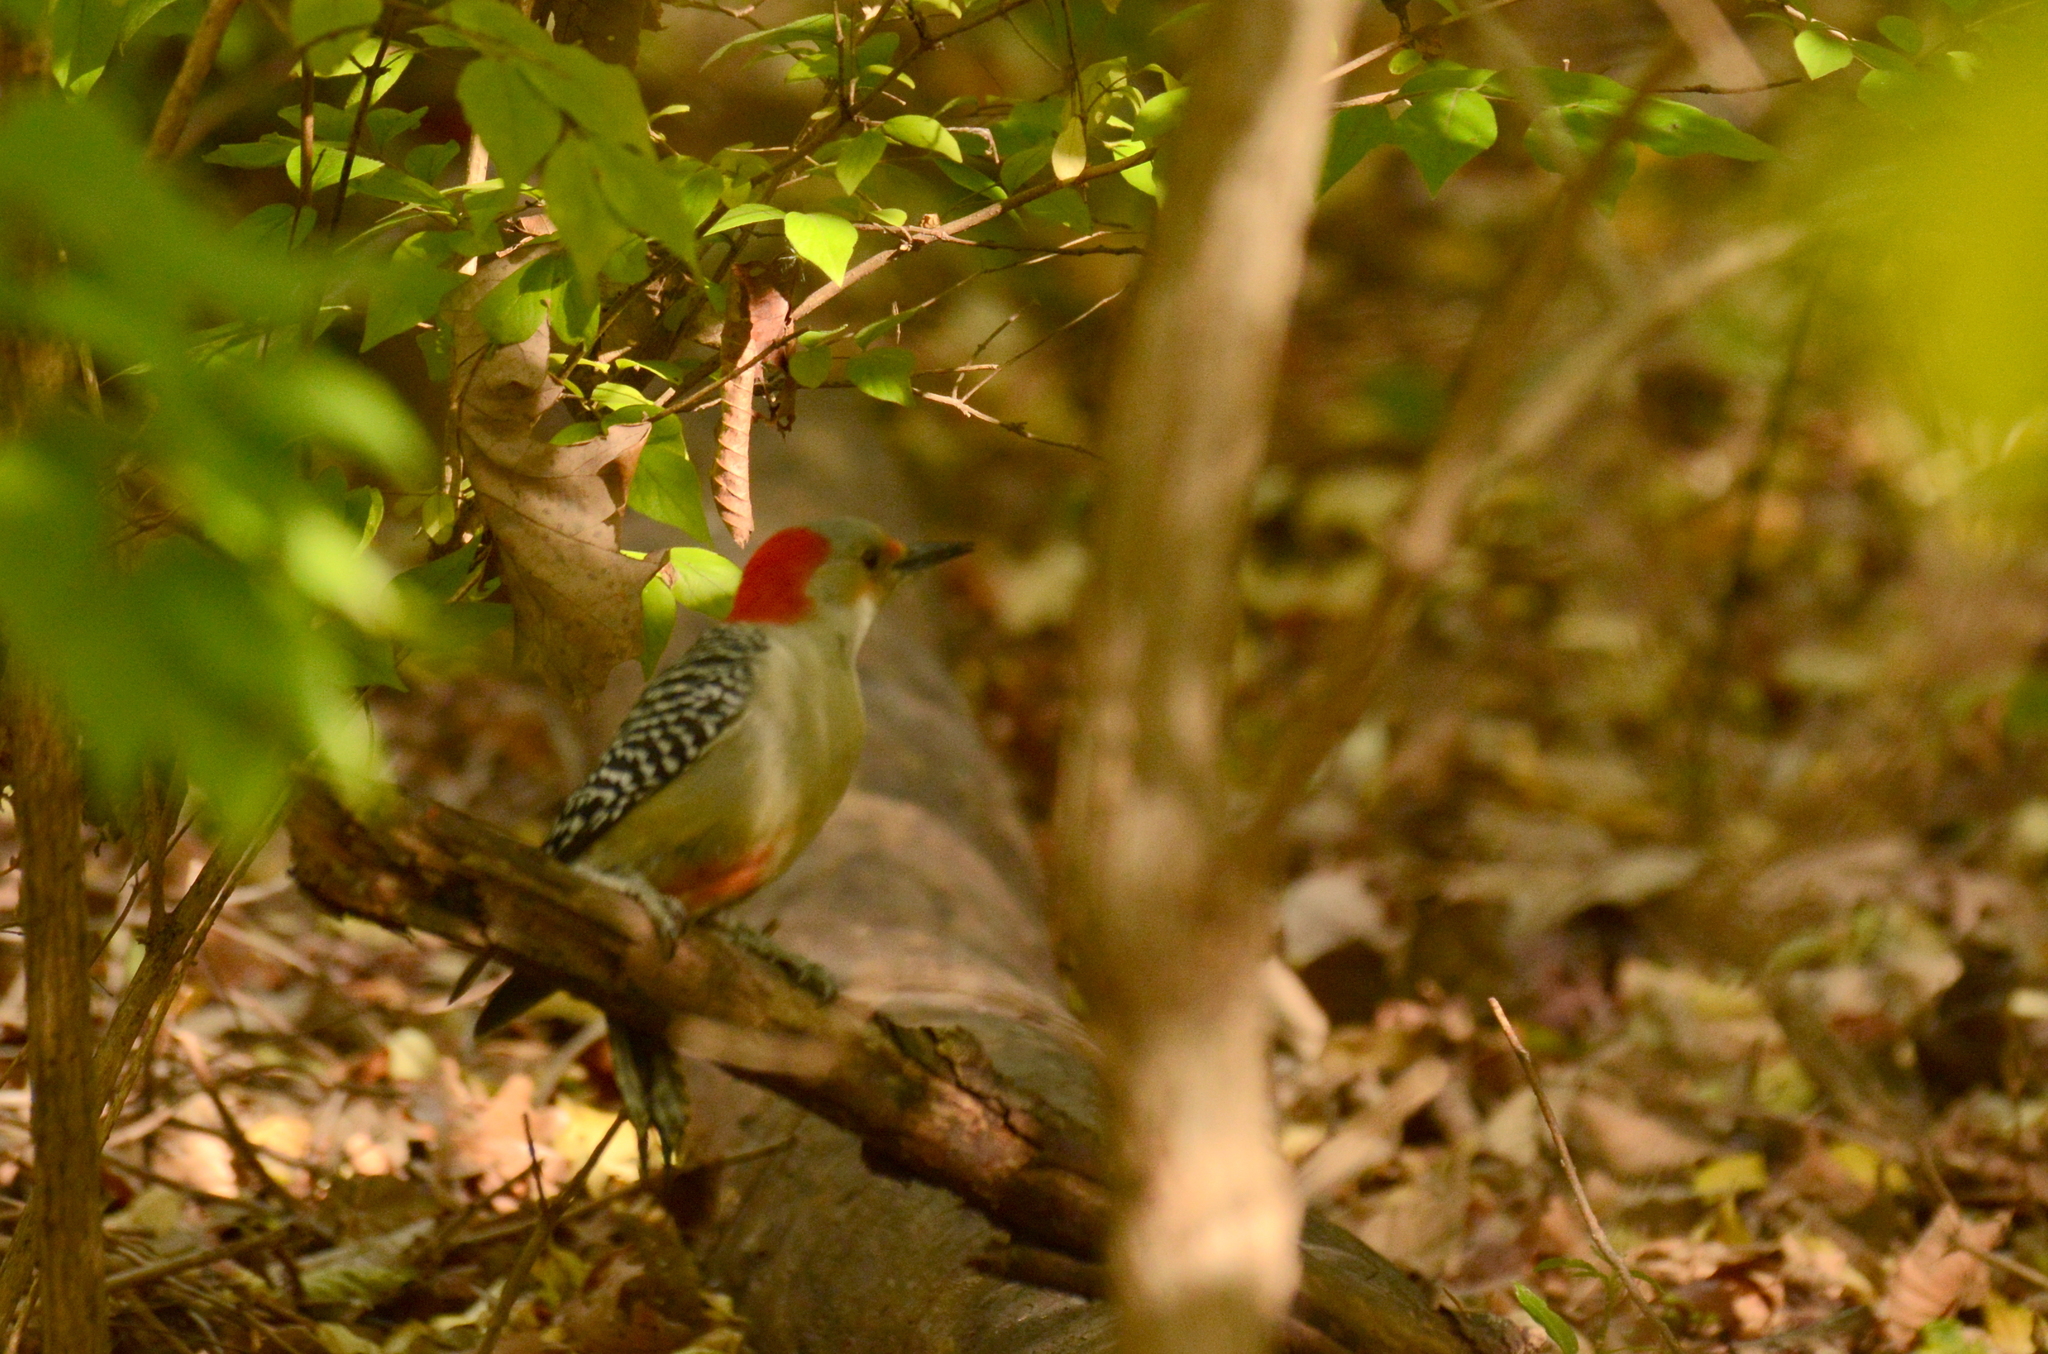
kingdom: Animalia
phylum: Chordata
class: Aves
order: Piciformes
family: Picidae
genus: Melanerpes
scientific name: Melanerpes carolinus
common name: Red-bellied woodpecker
